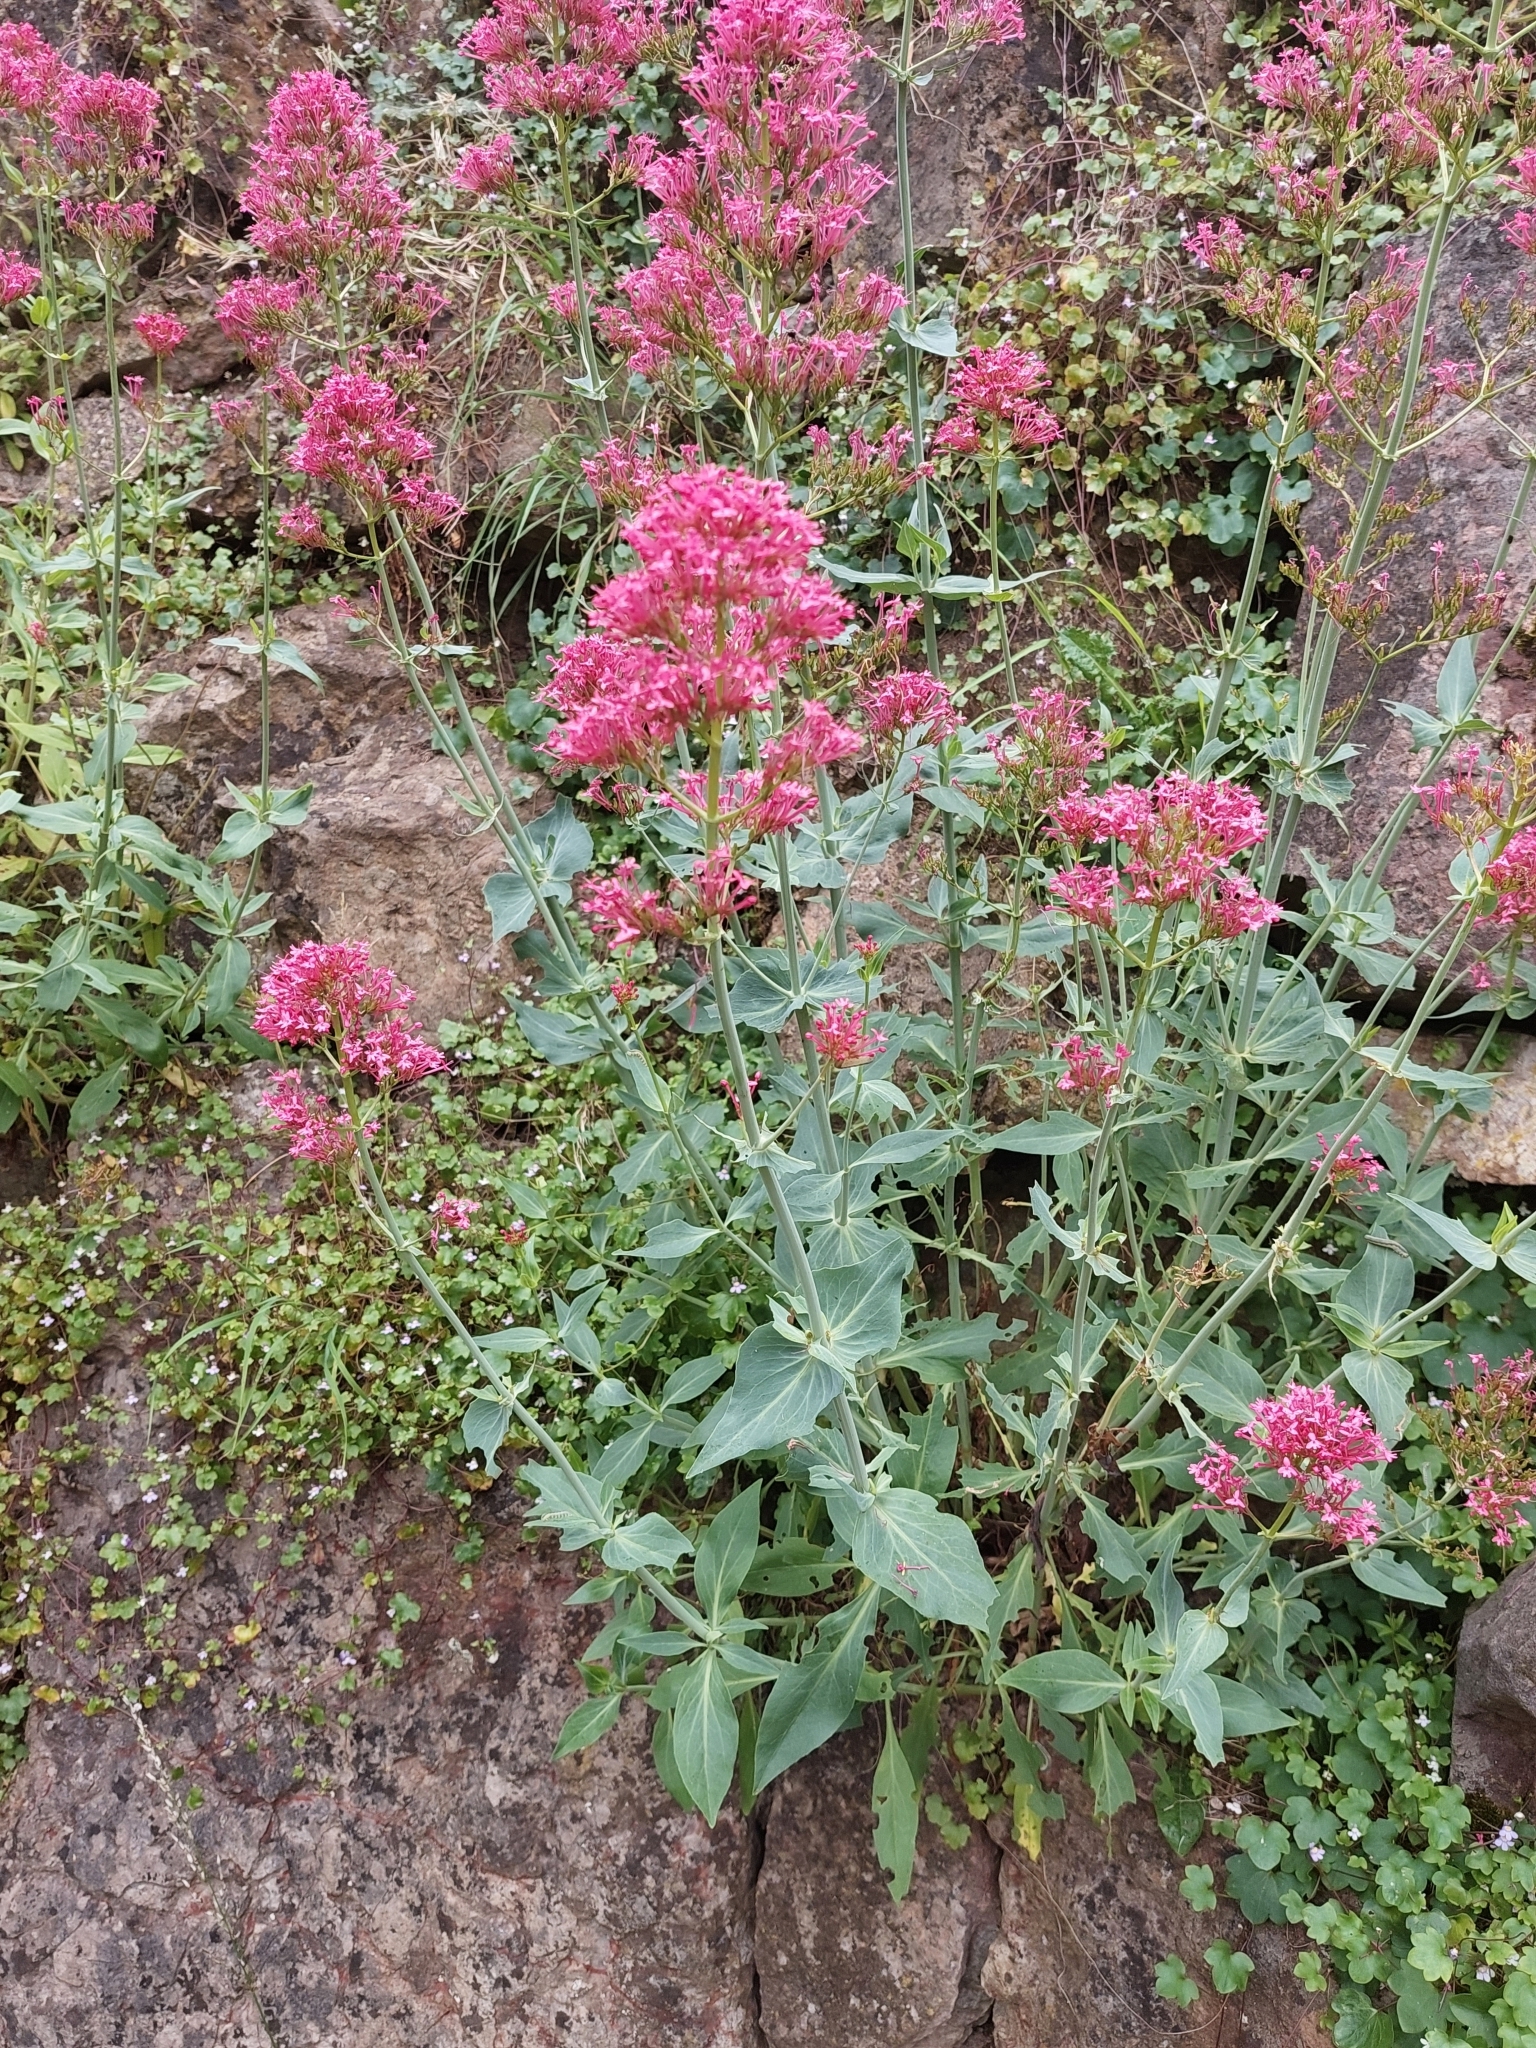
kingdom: Plantae
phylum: Tracheophyta
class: Magnoliopsida
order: Dipsacales
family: Caprifoliaceae
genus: Centranthus
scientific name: Centranthus ruber
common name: Red valerian
